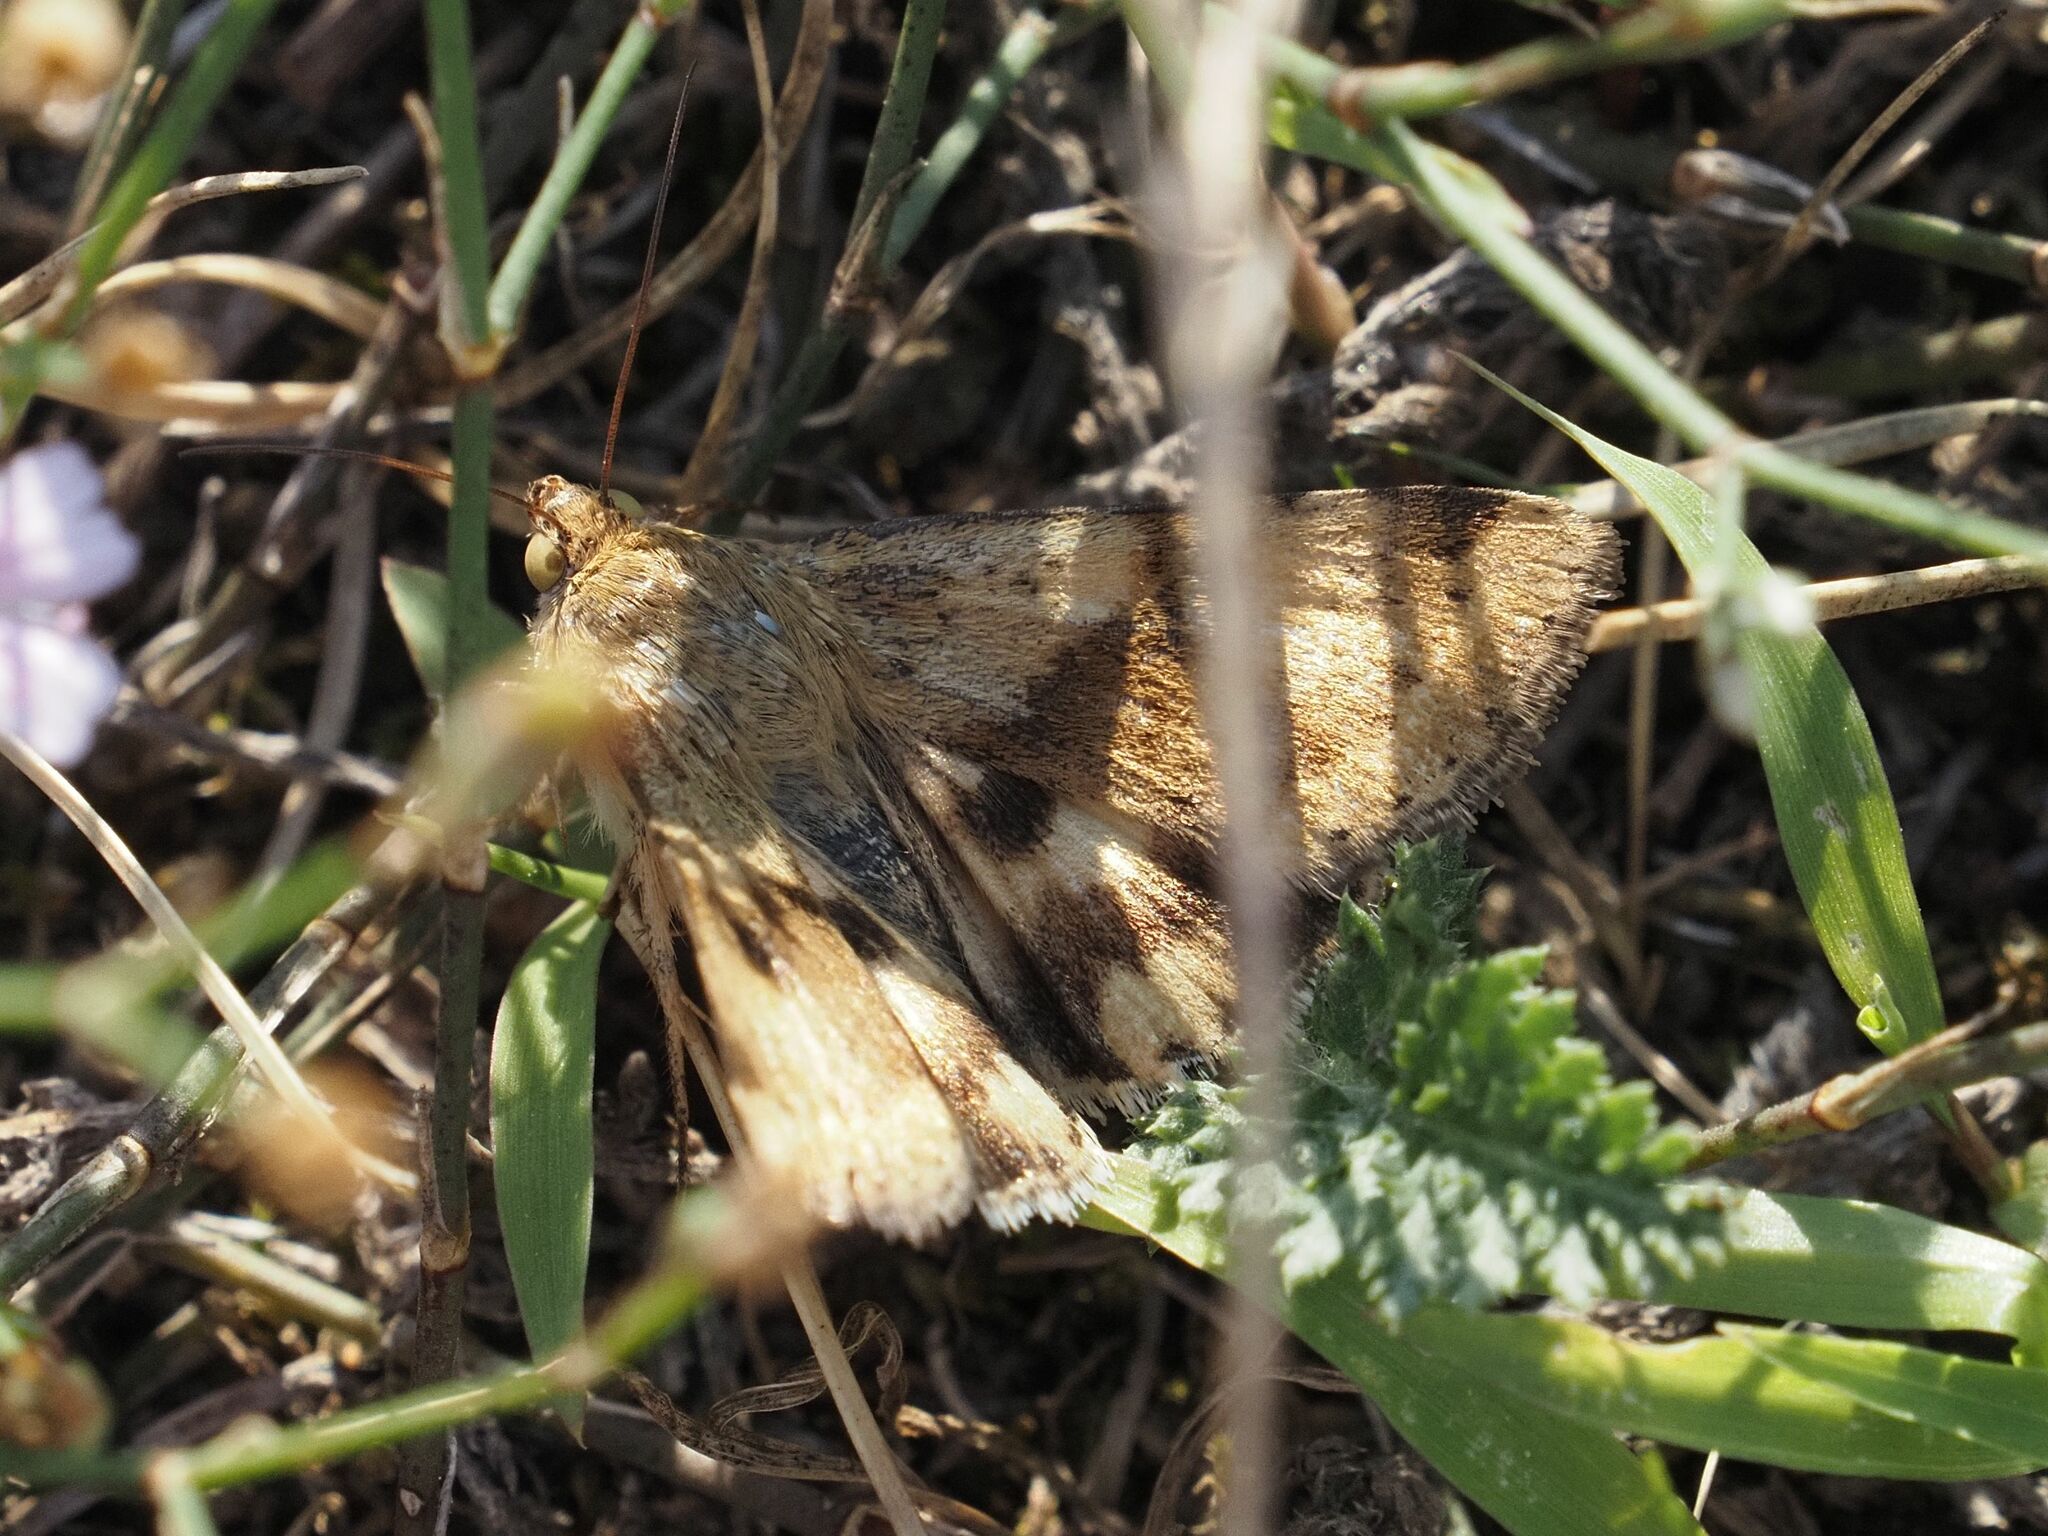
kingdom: Animalia
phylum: Arthropoda
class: Insecta
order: Lepidoptera
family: Noctuidae
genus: Heliothis
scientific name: Heliothis viriplaca
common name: Marbled clover
